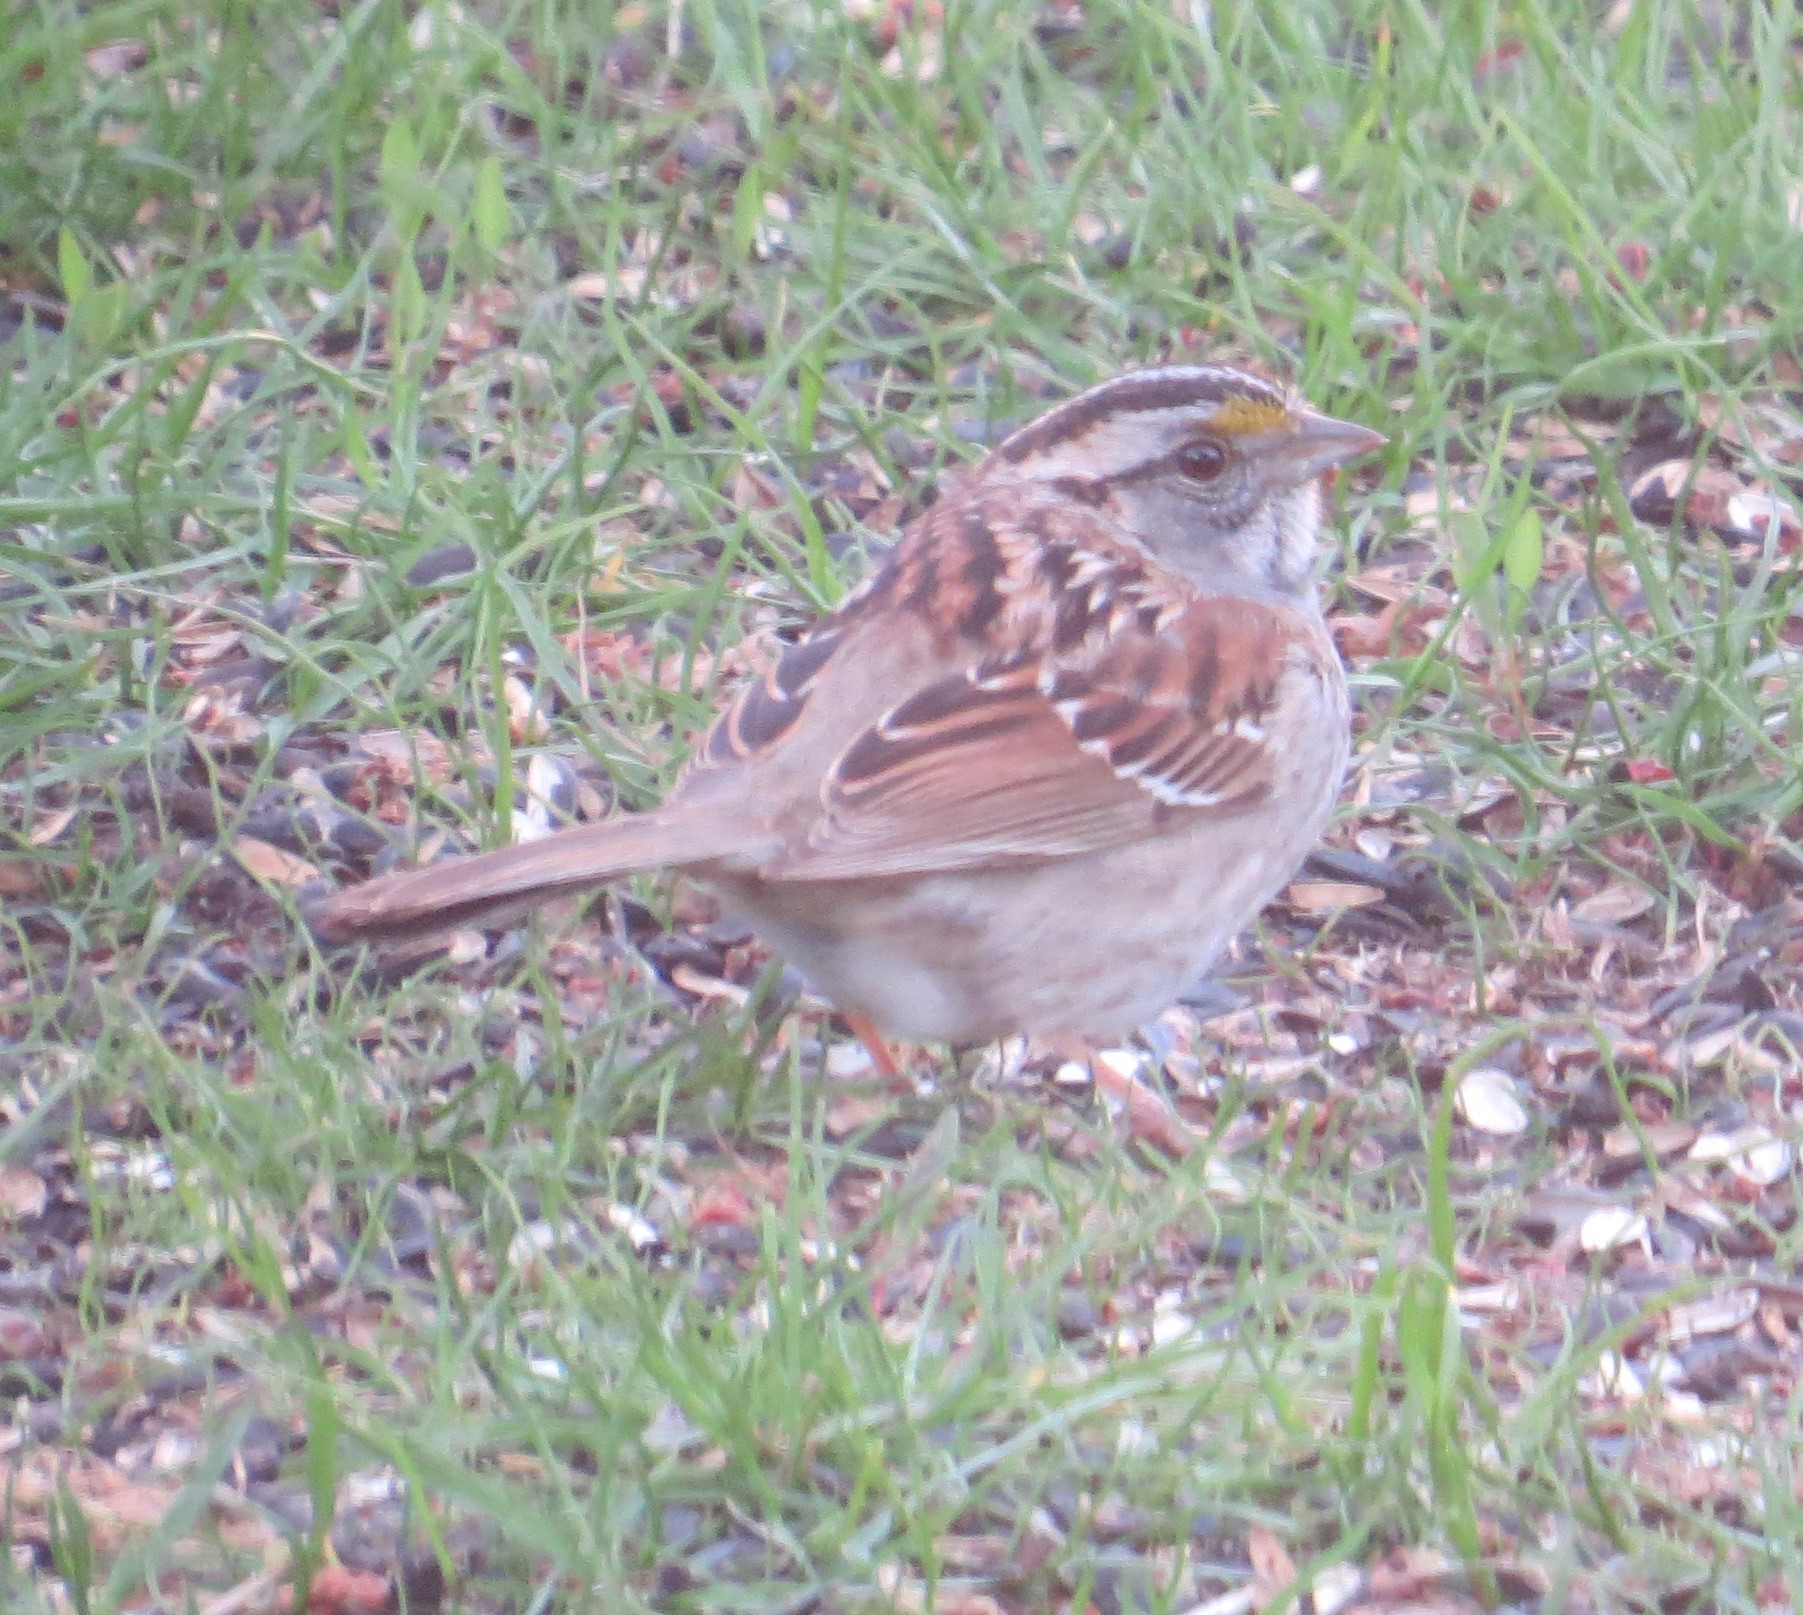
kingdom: Animalia
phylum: Chordata
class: Aves
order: Passeriformes
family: Passerellidae
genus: Zonotrichia
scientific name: Zonotrichia albicollis
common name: White-throated sparrow
